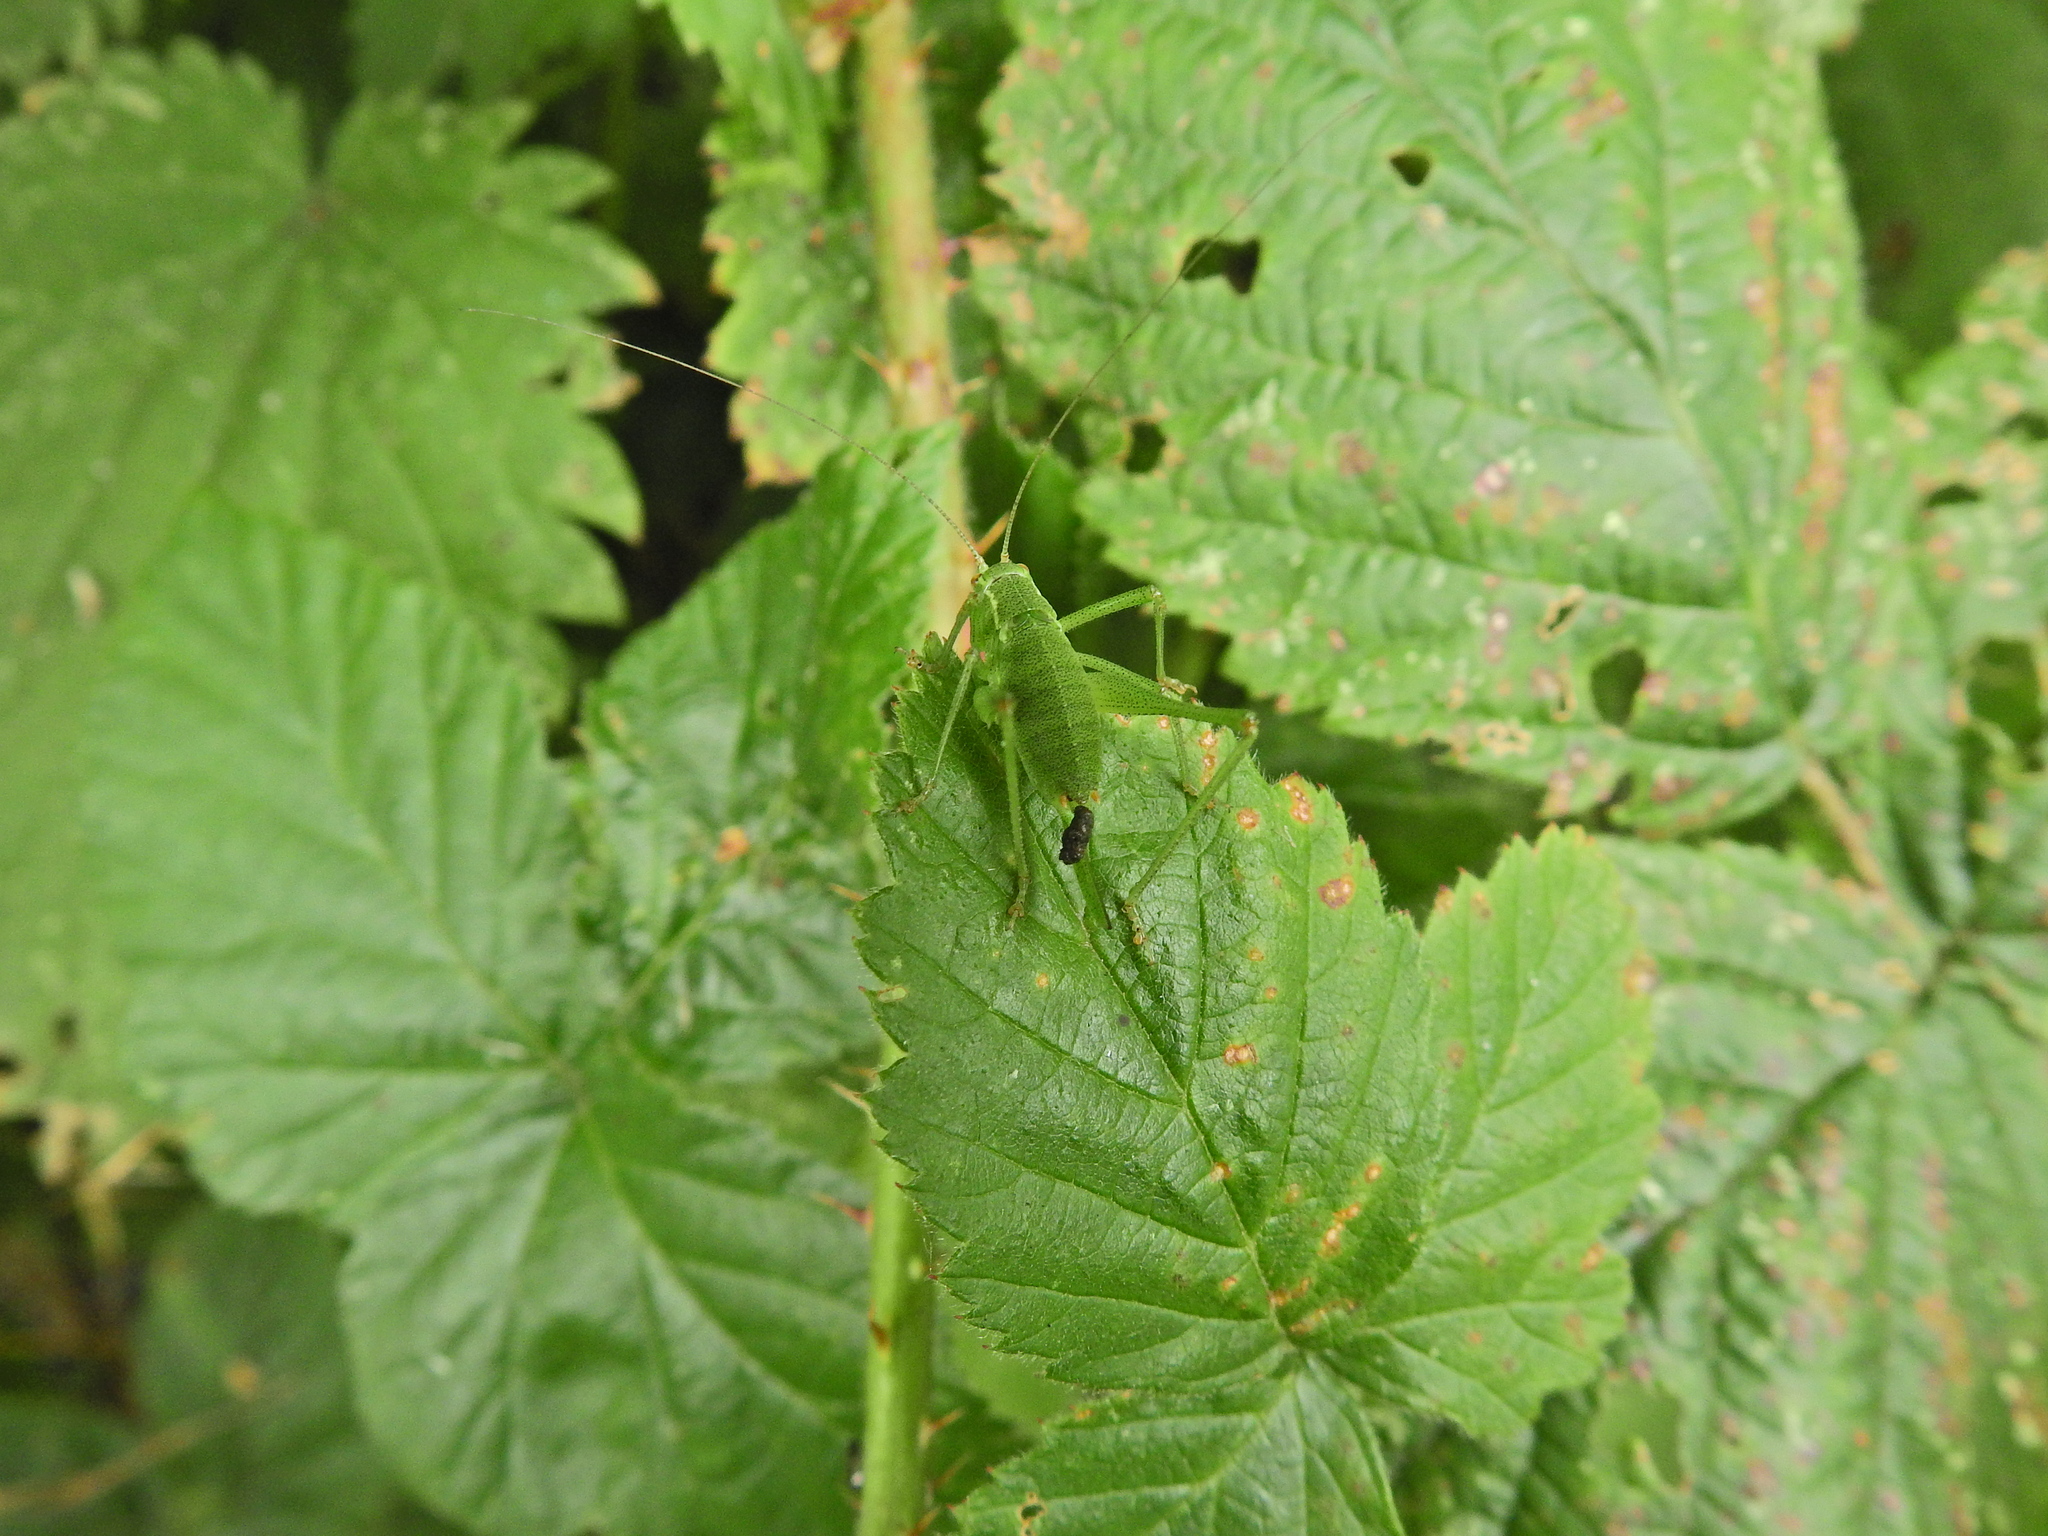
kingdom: Animalia
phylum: Arthropoda
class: Insecta
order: Orthoptera
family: Tettigoniidae
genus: Leptophyes
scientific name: Leptophyes punctatissima
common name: Speckled bush-cricket
